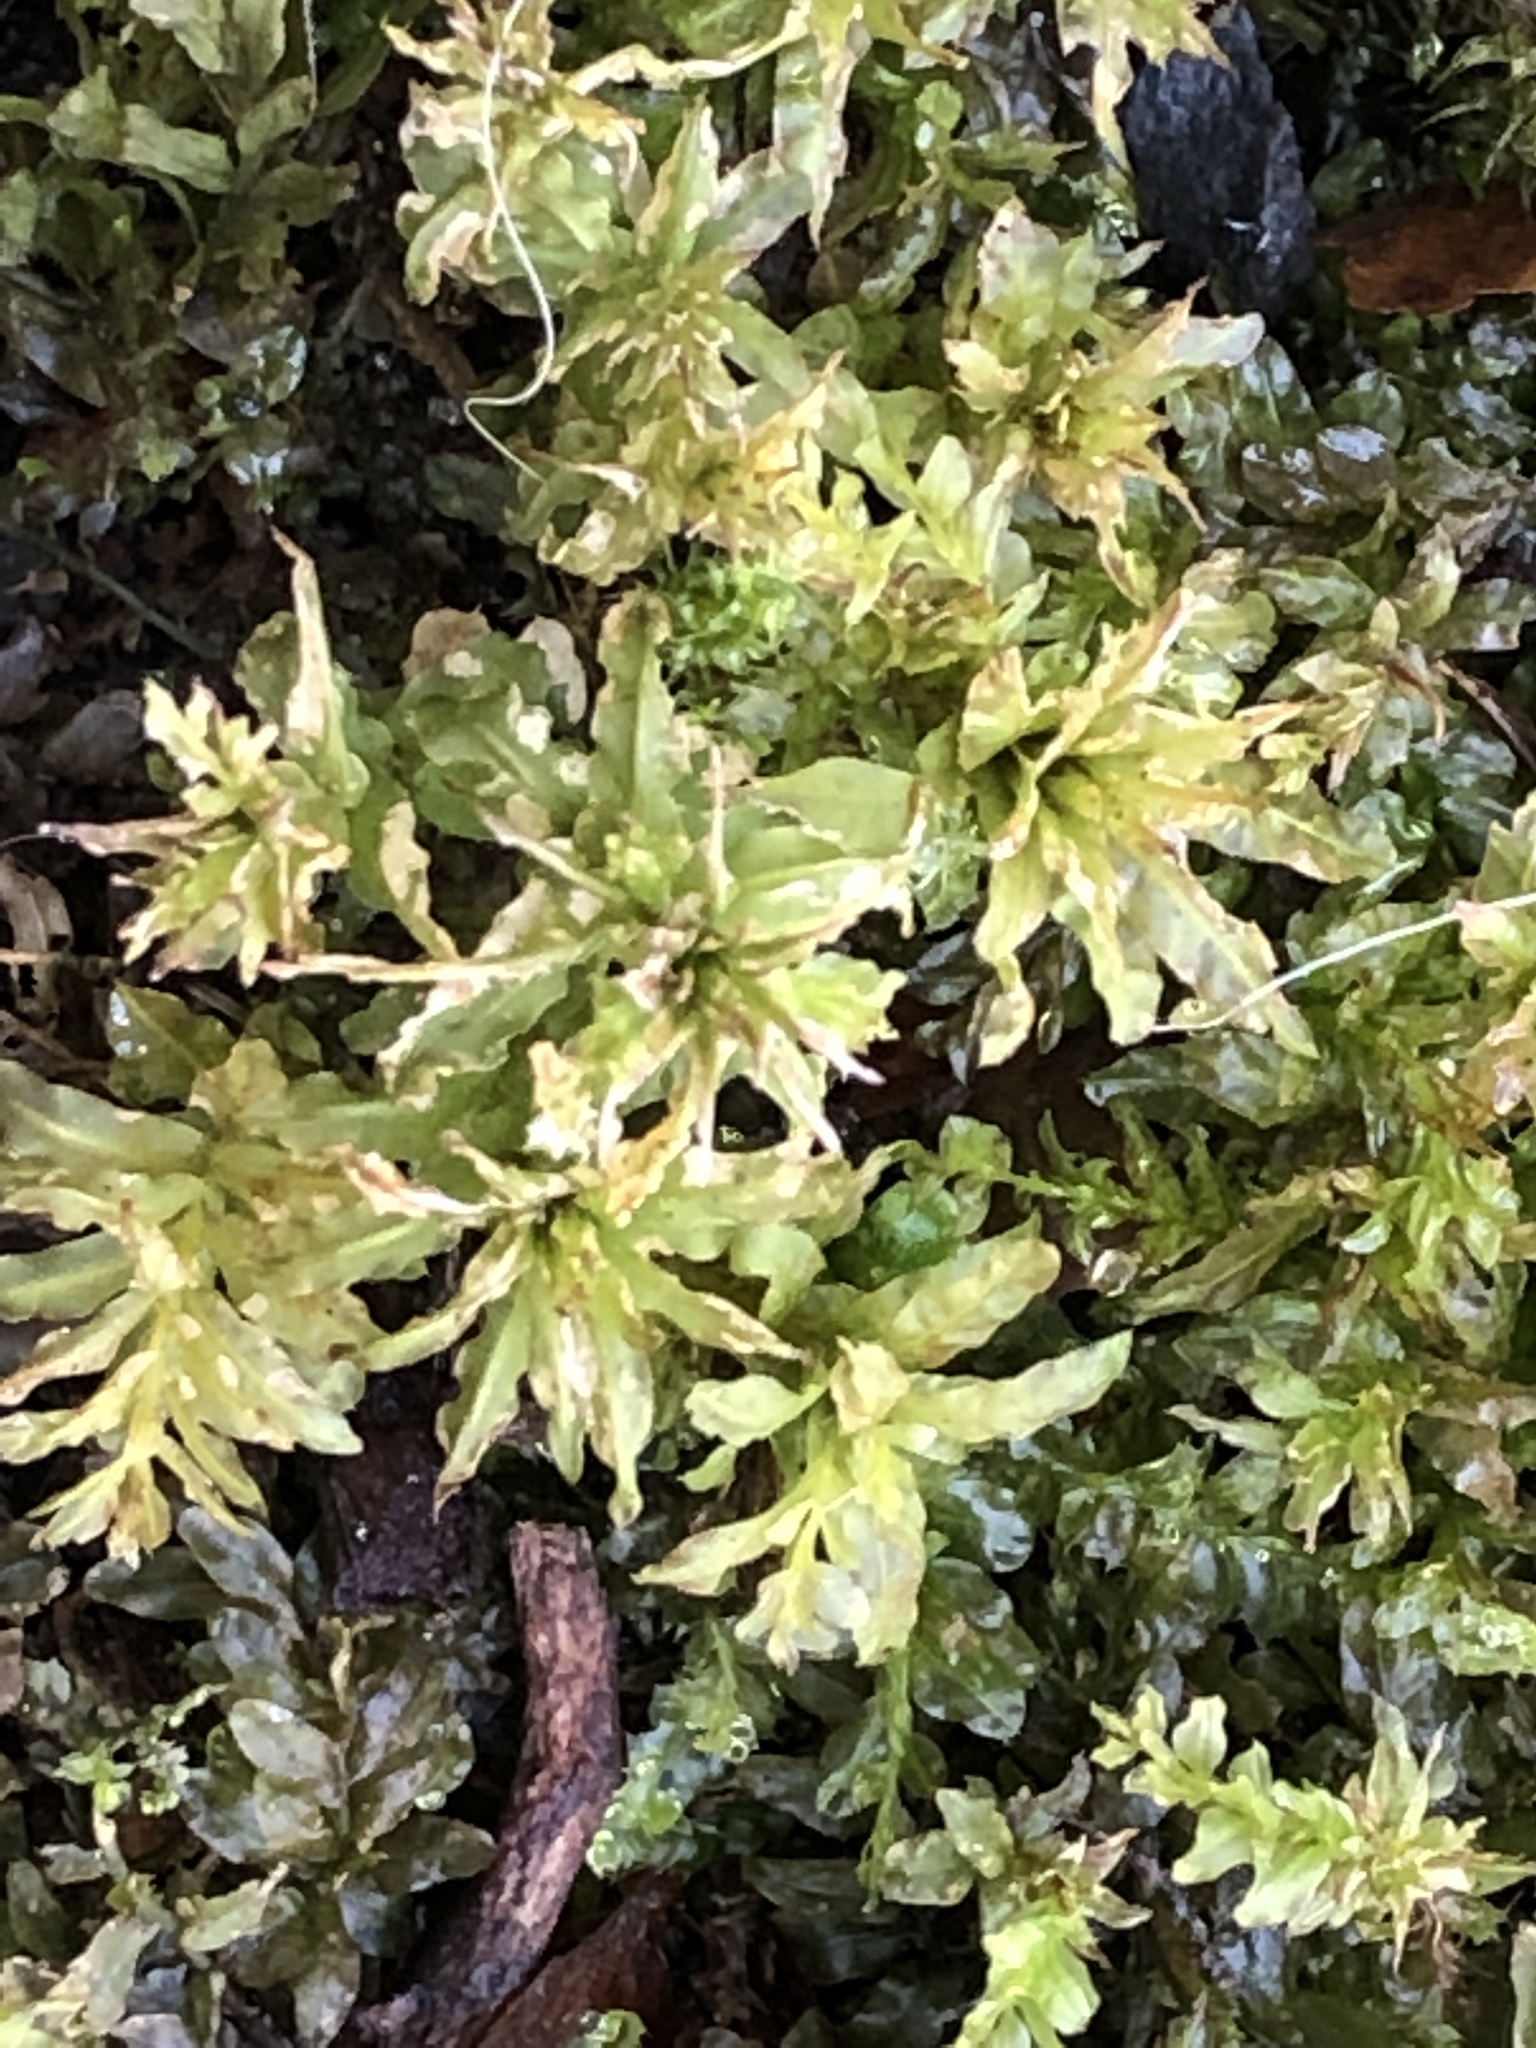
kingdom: Plantae
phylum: Bryophyta
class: Bryopsida
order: Bryales
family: Mniaceae
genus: Plagiomnium
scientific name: Plagiomnium undulatum
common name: Hart's-tongue thyme-moss
